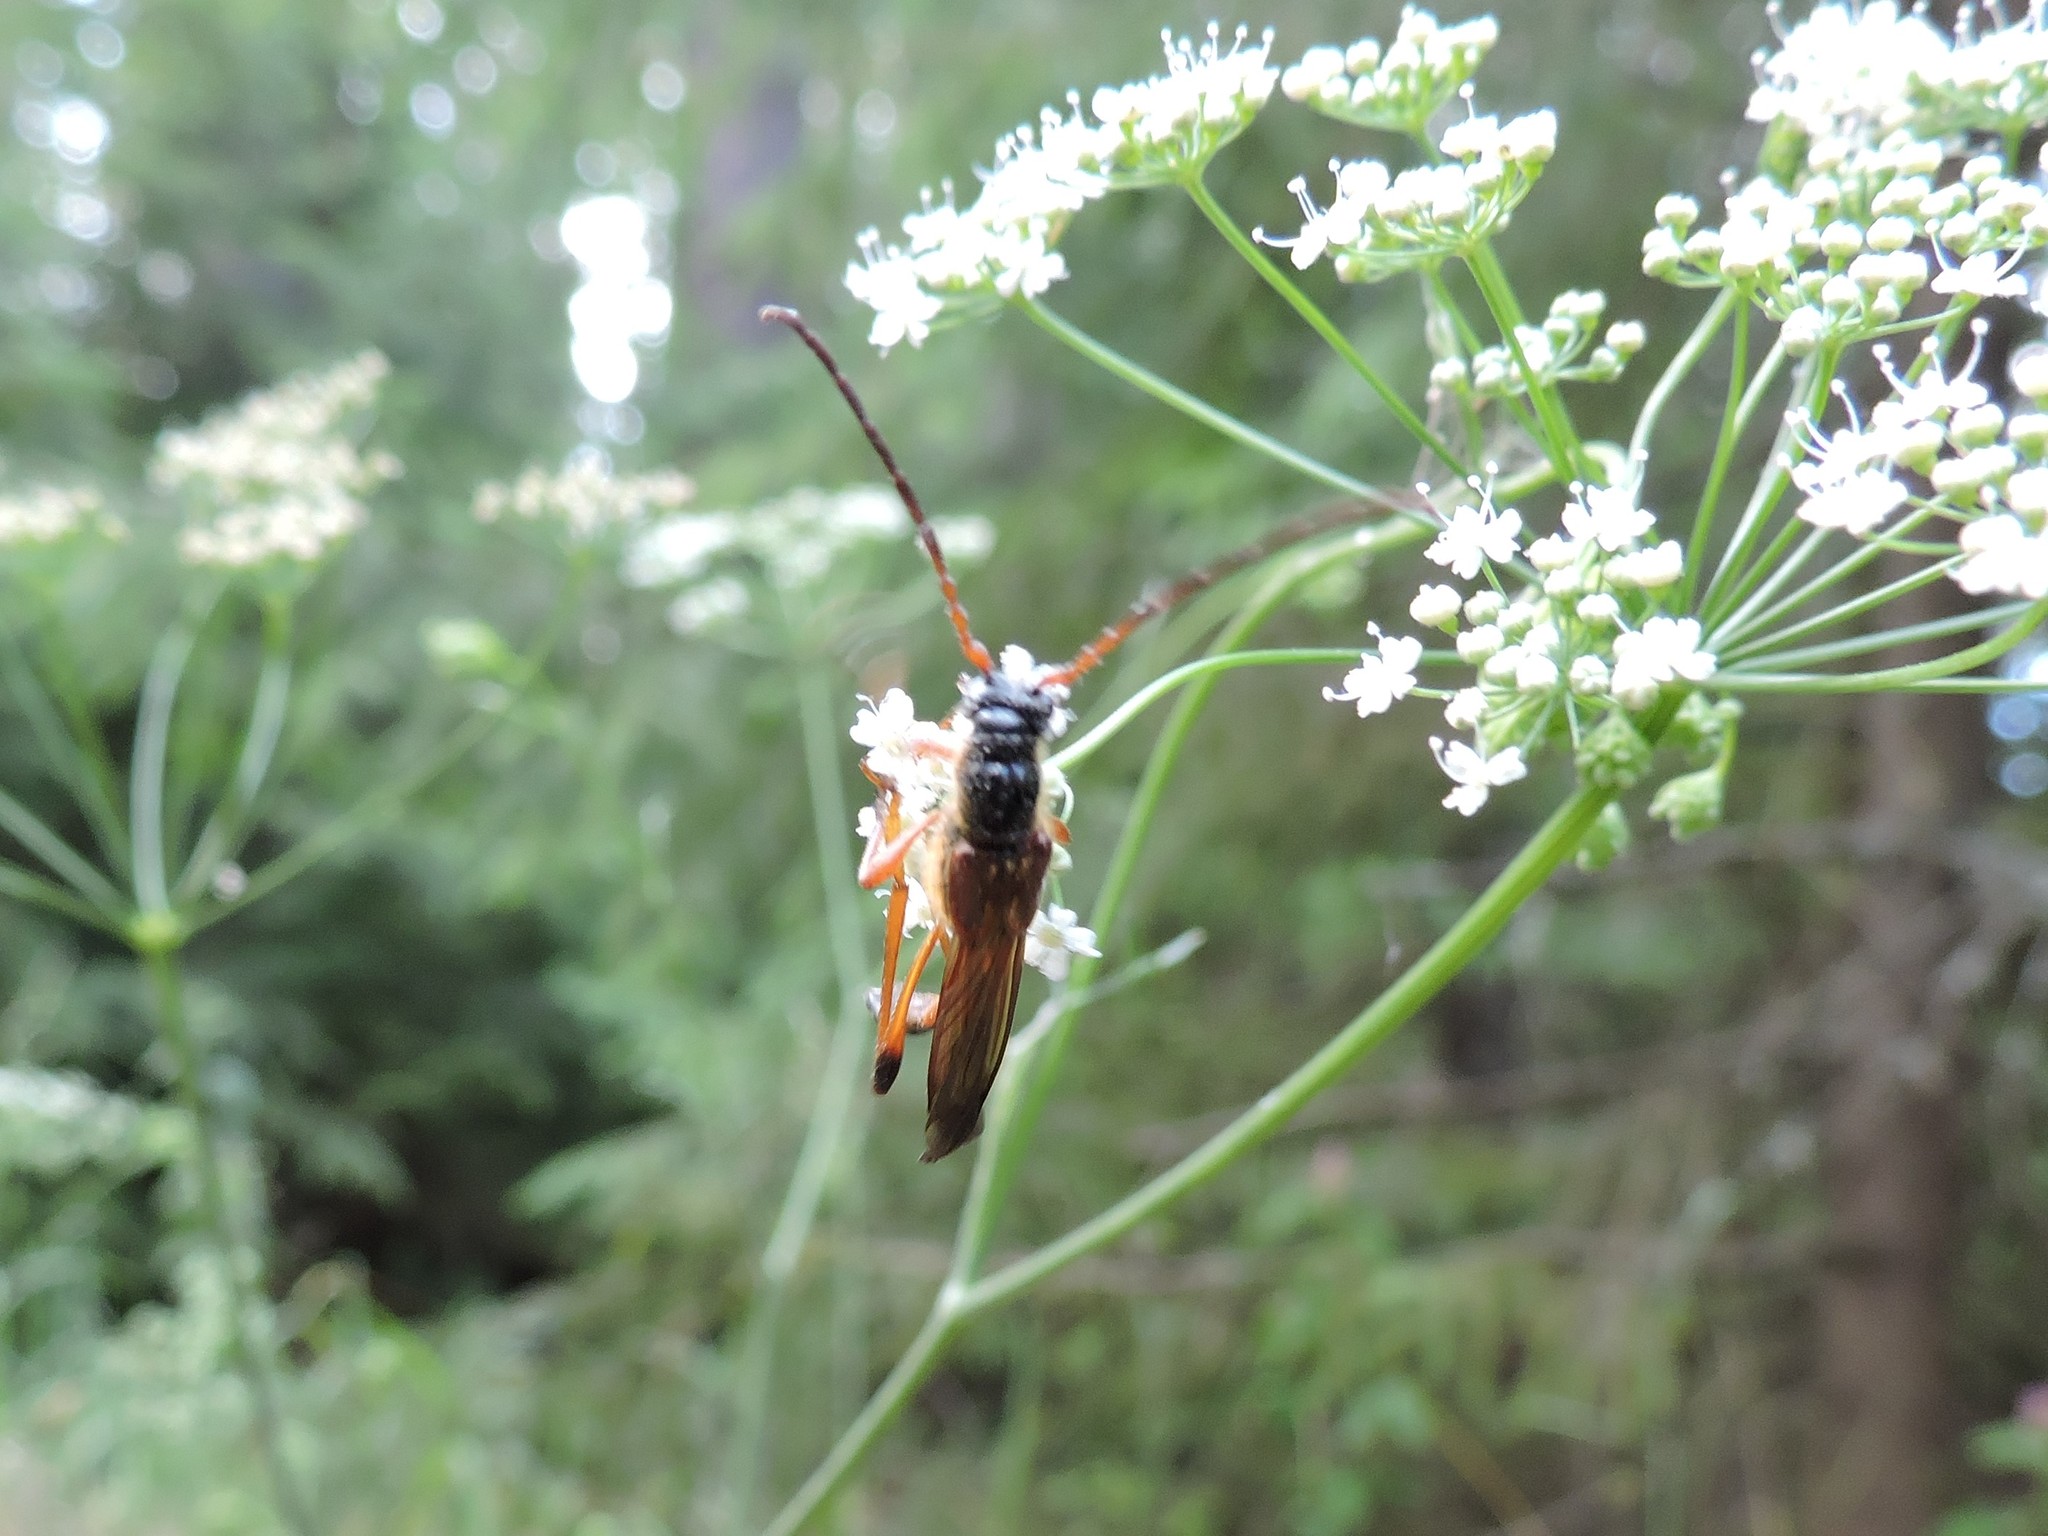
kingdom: Animalia
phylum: Arthropoda
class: Insecta
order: Coleoptera
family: Cerambycidae
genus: Necydalis
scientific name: Necydalis major
